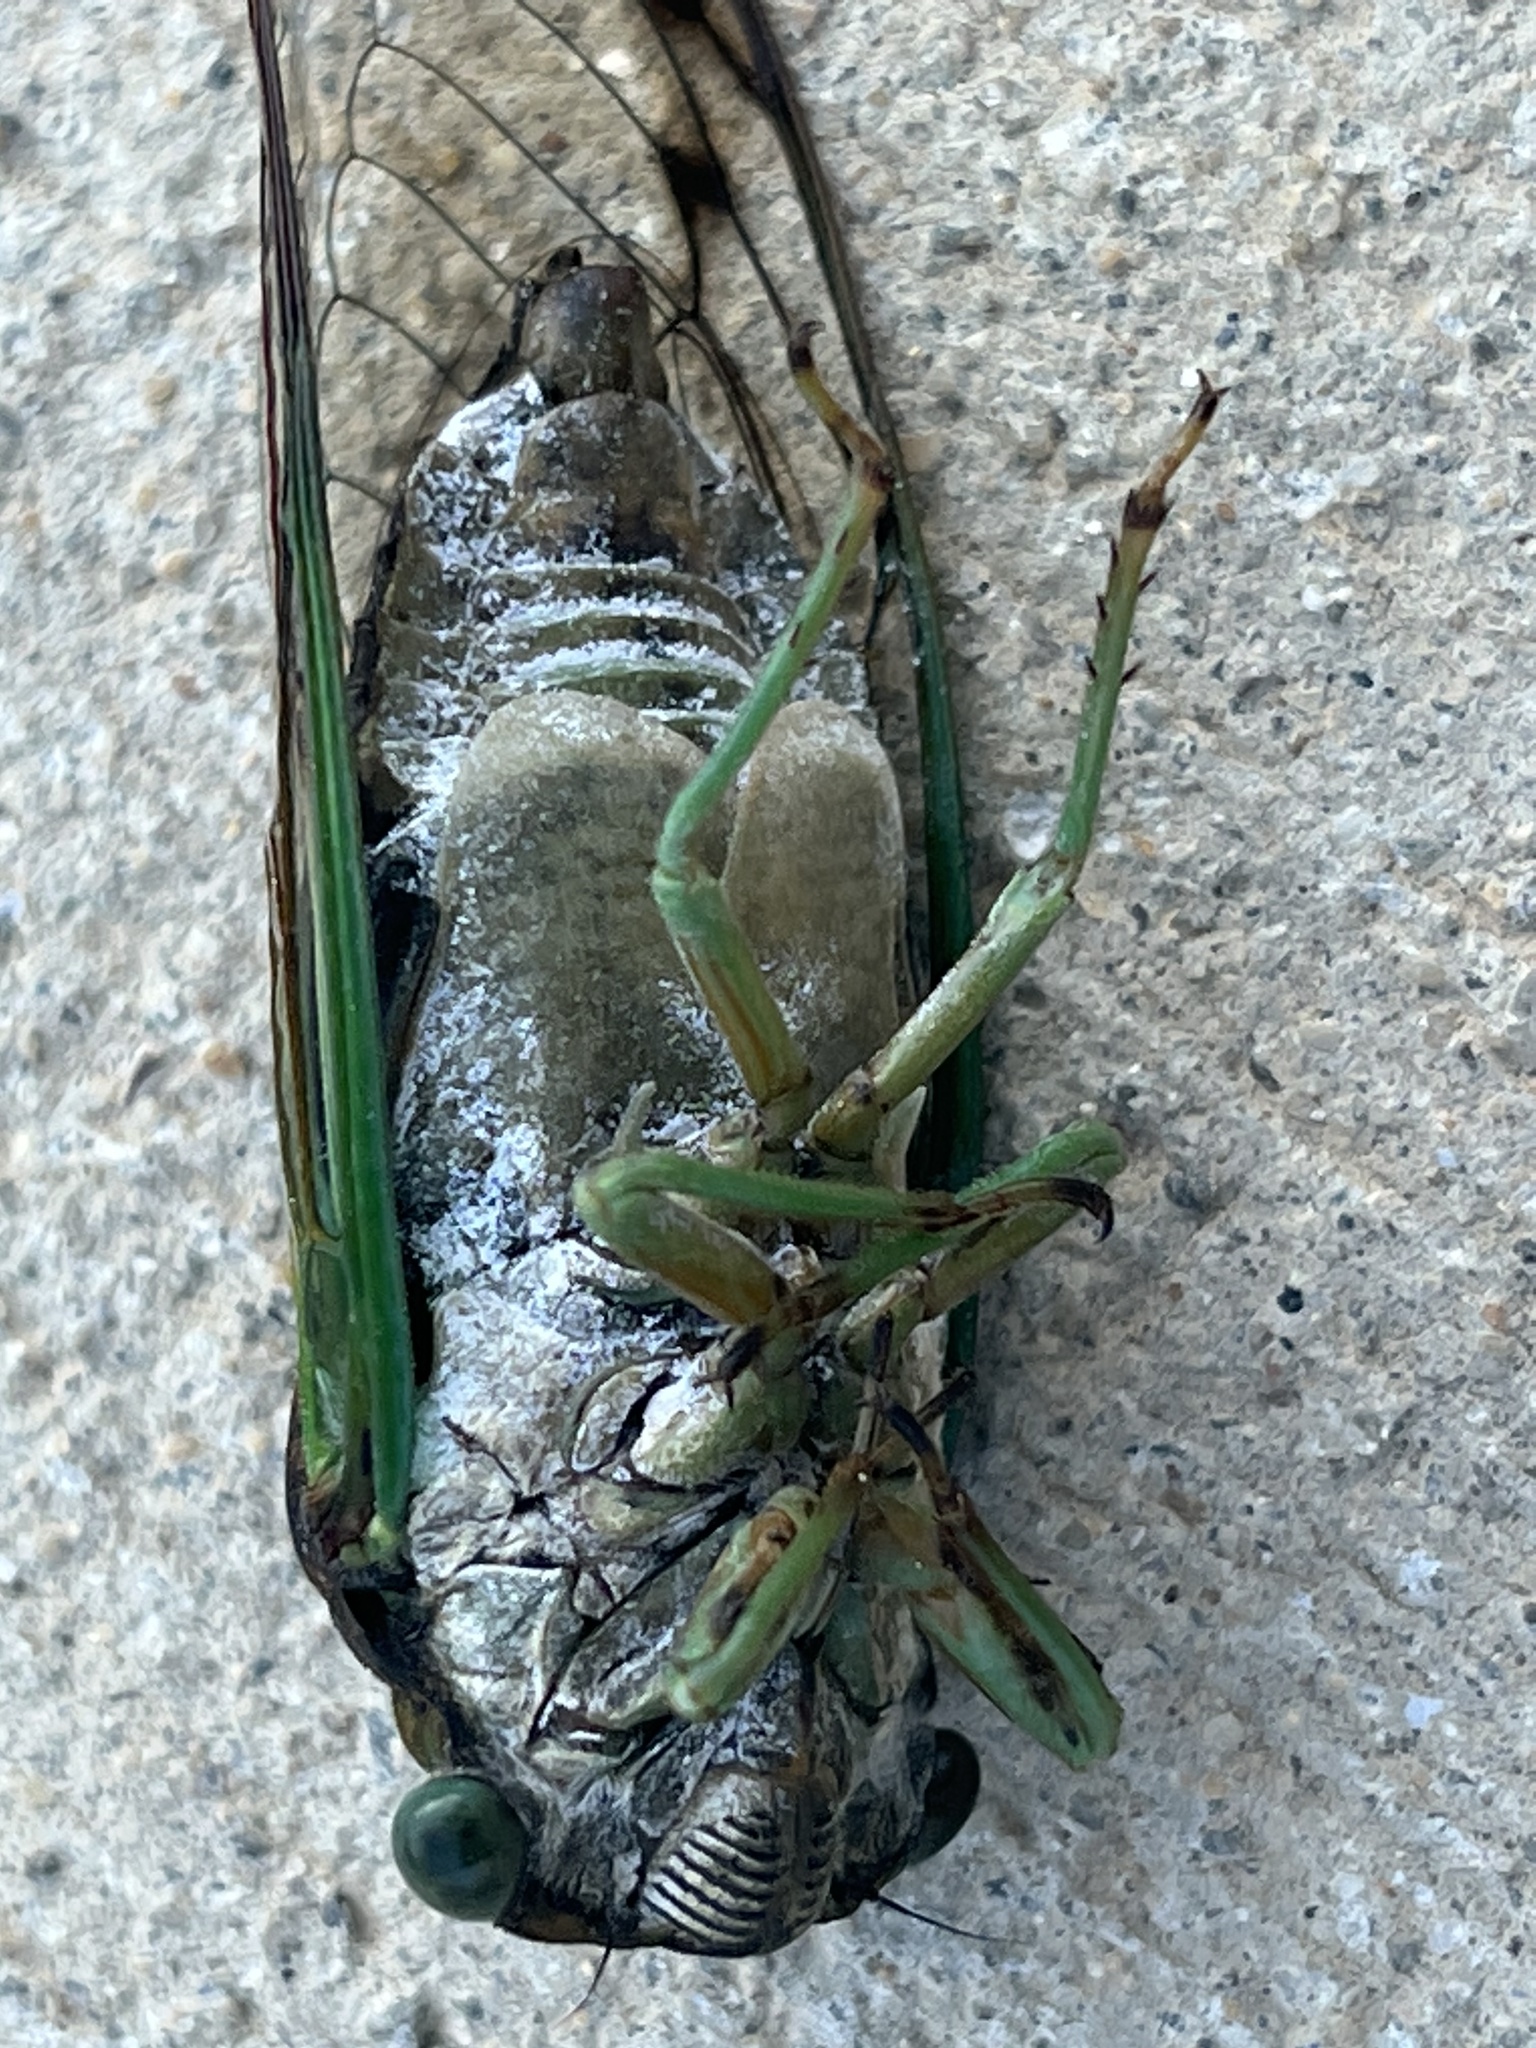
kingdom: Animalia
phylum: Arthropoda
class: Insecta
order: Hemiptera
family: Cicadidae
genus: Neotibicen
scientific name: Neotibicen tibicen
